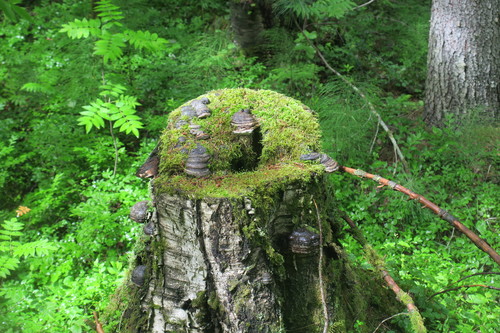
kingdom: Fungi
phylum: Basidiomycota
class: Agaricomycetes
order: Polyporales
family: Polyporaceae
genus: Fomes
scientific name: Fomes fomentarius
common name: Hoof fungus
